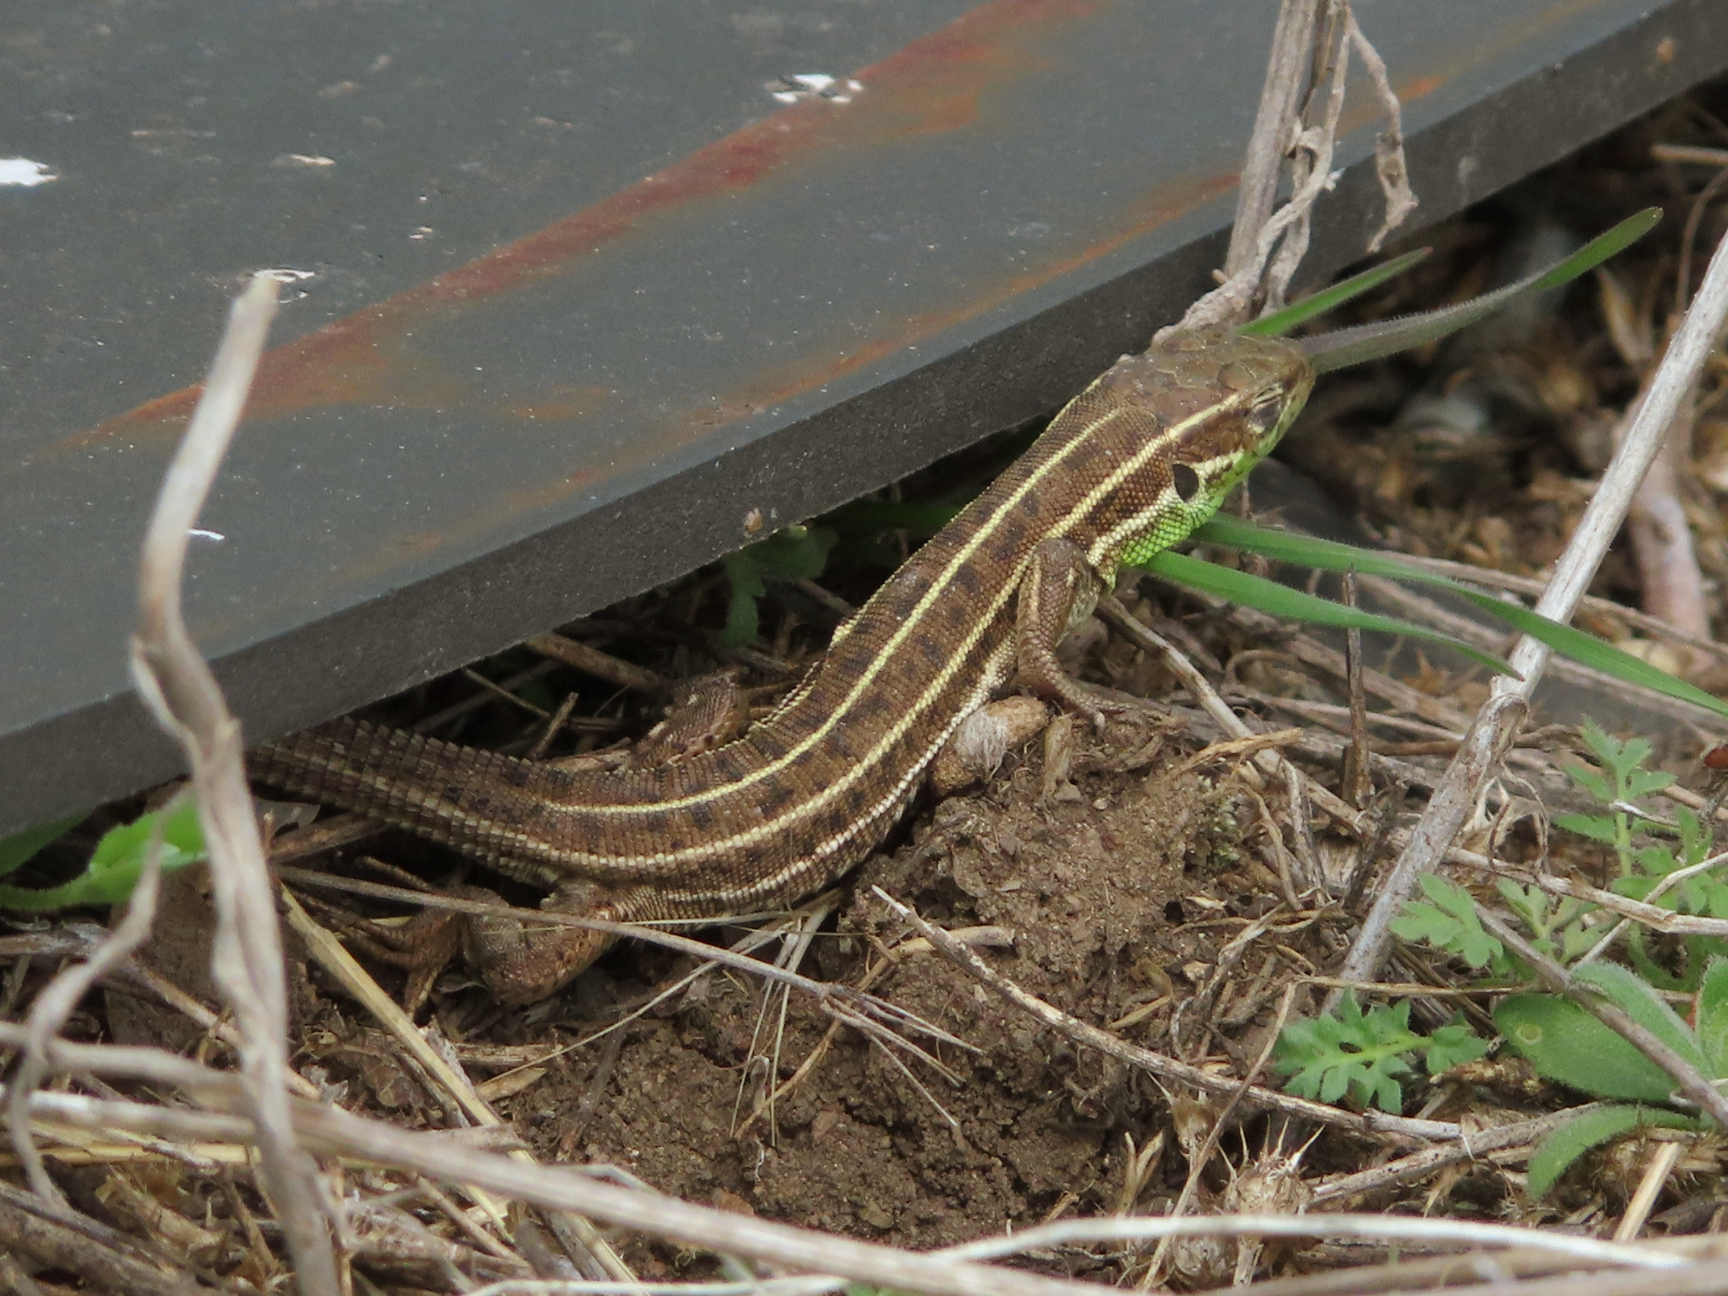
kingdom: Animalia
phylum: Chordata
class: Squamata
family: Lacertidae
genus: Lacerta
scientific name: Lacerta strigata
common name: Caspian green lizard
